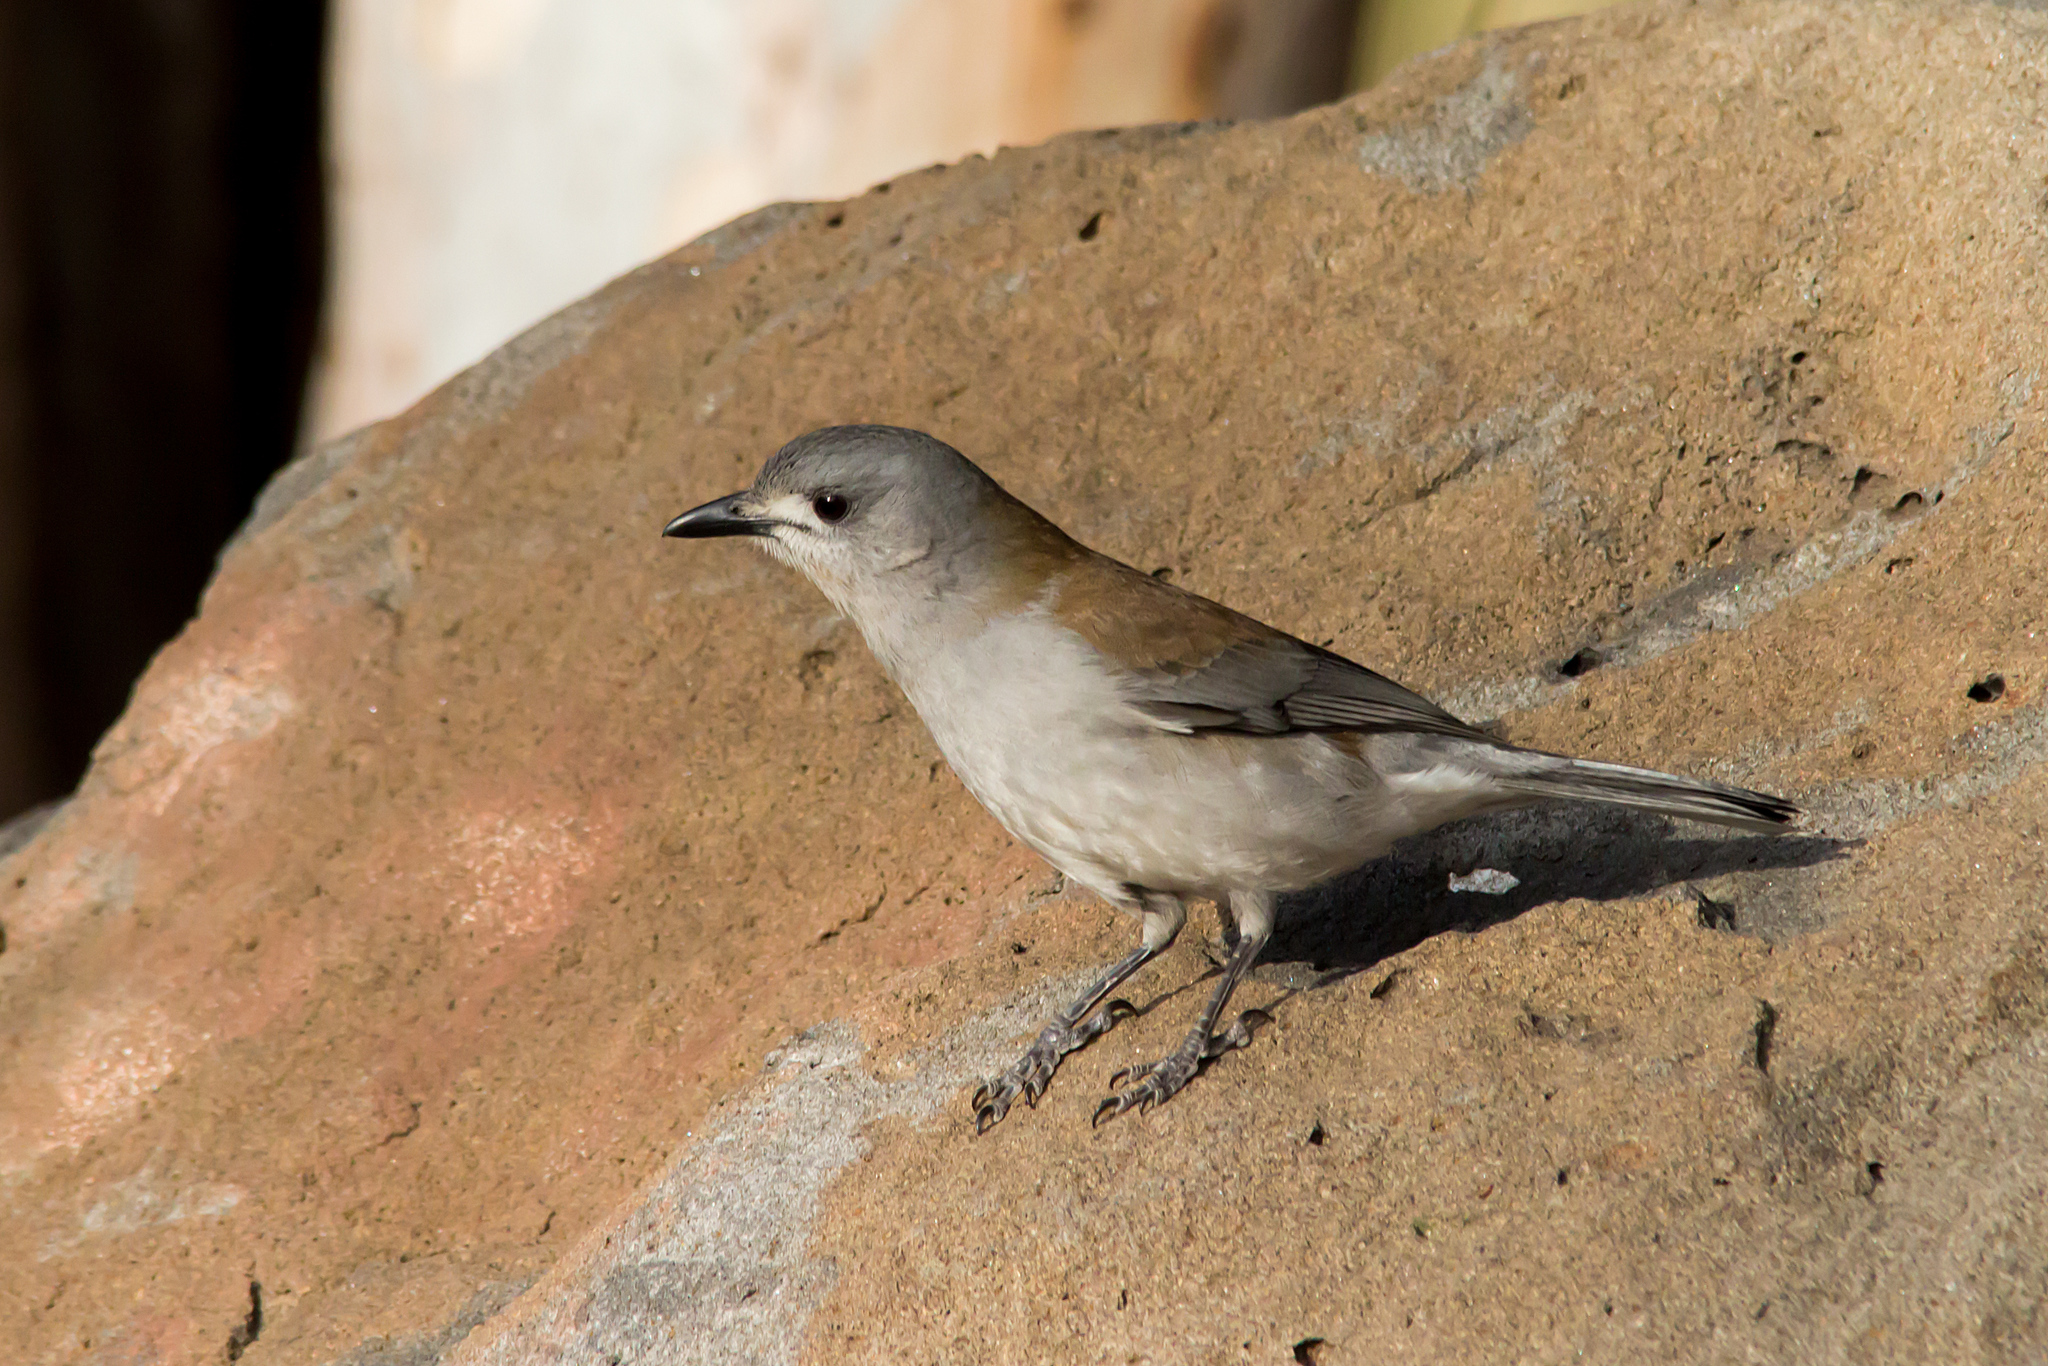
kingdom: Animalia
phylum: Chordata
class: Aves
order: Passeriformes
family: Pachycephalidae
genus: Colluricincla
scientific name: Colluricincla harmonica
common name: Grey shrikethrush
